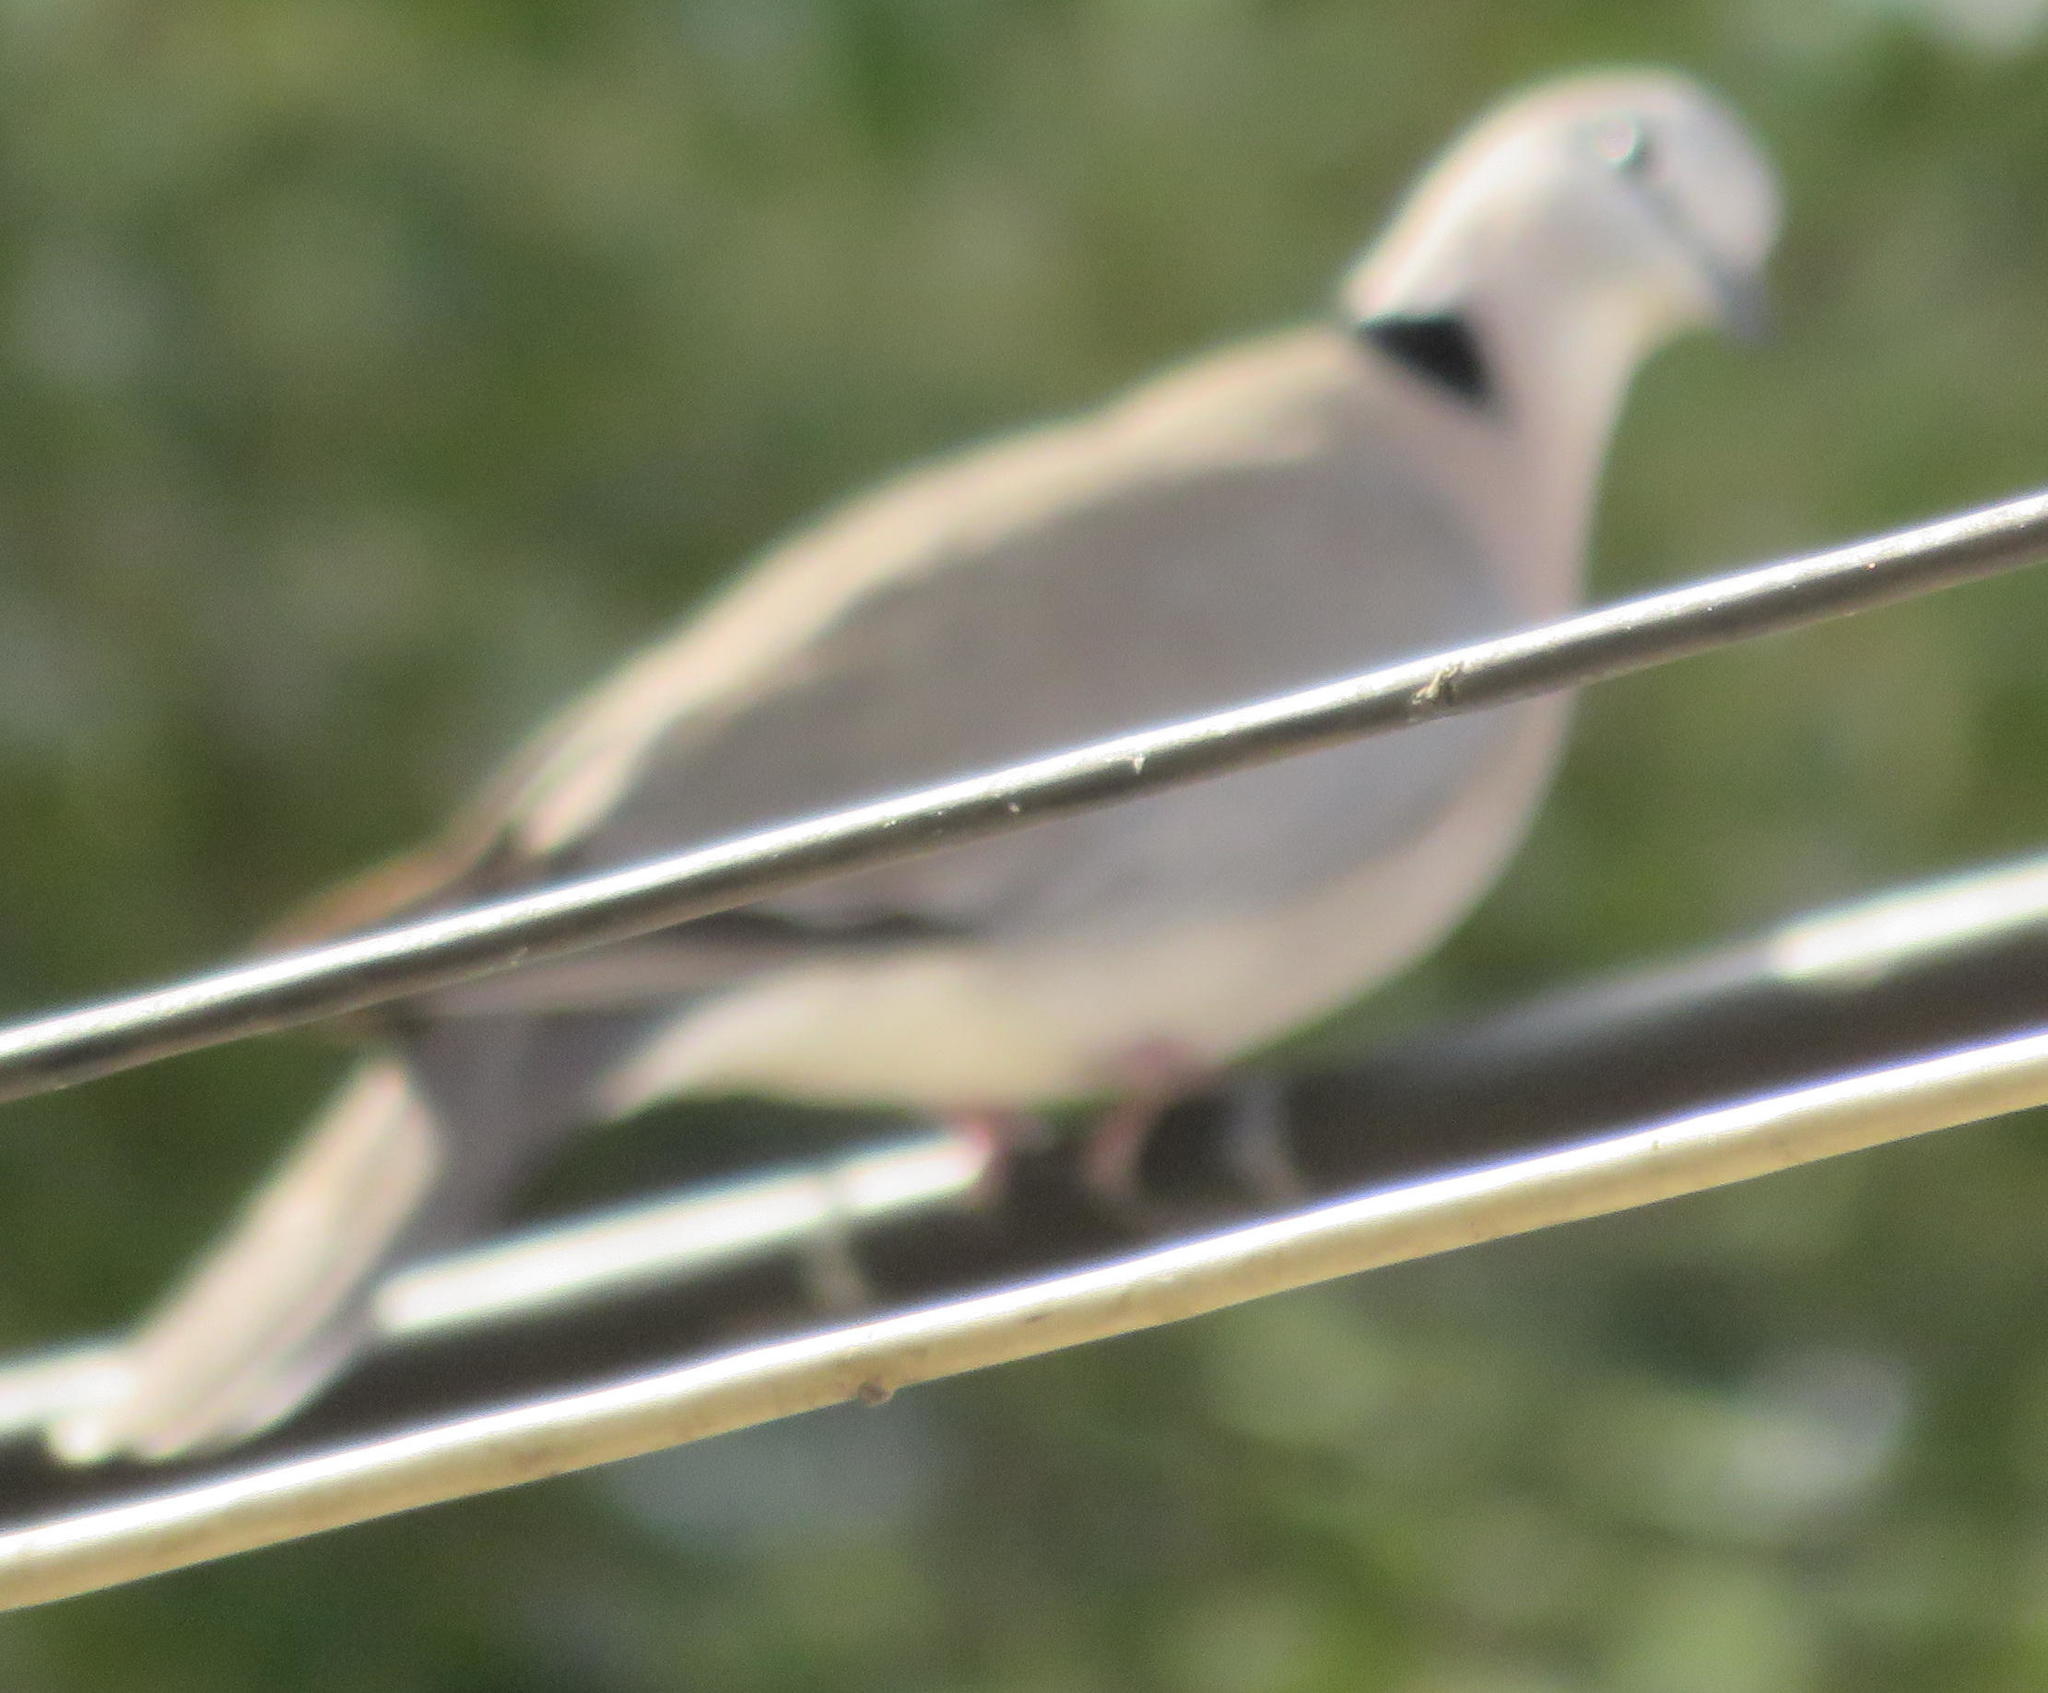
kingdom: Animalia
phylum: Chordata
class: Aves
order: Columbiformes
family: Columbidae
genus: Streptopelia
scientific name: Streptopelia capicola
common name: Ring-necked dove
